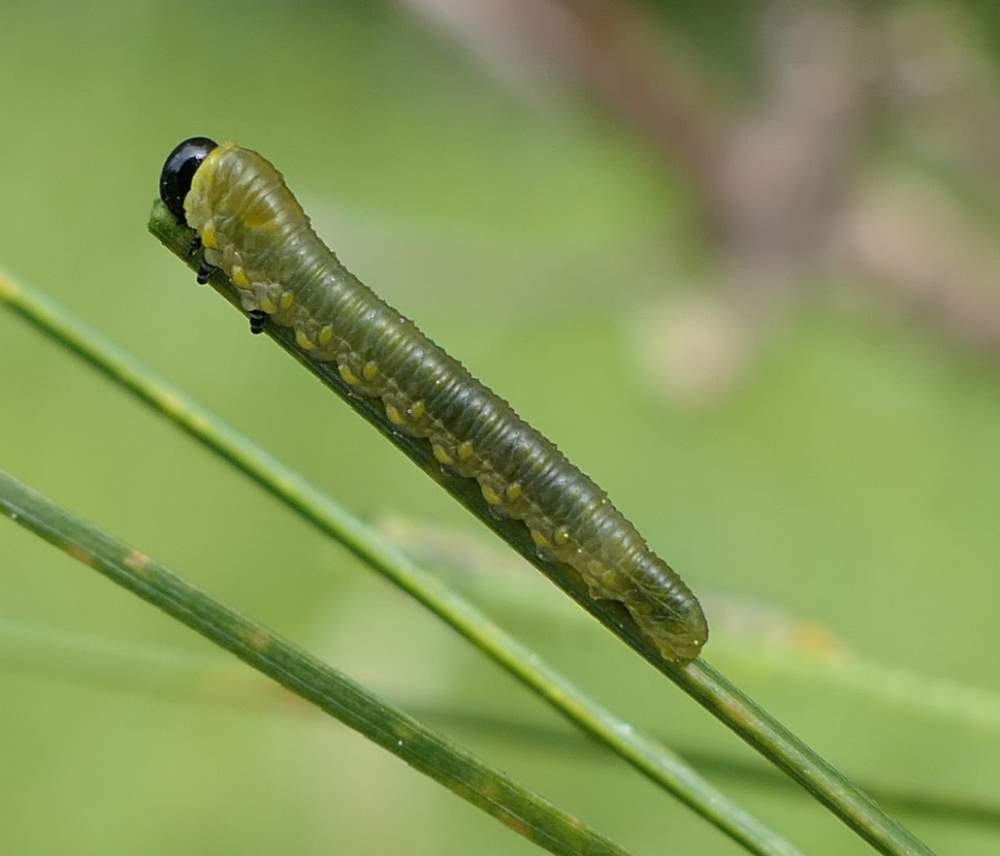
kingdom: Animalia
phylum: Arthropoda
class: Insecta
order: Hymenoptera
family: Diprionidae
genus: Diprion
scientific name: Diprion similis
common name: Pine sawfly
